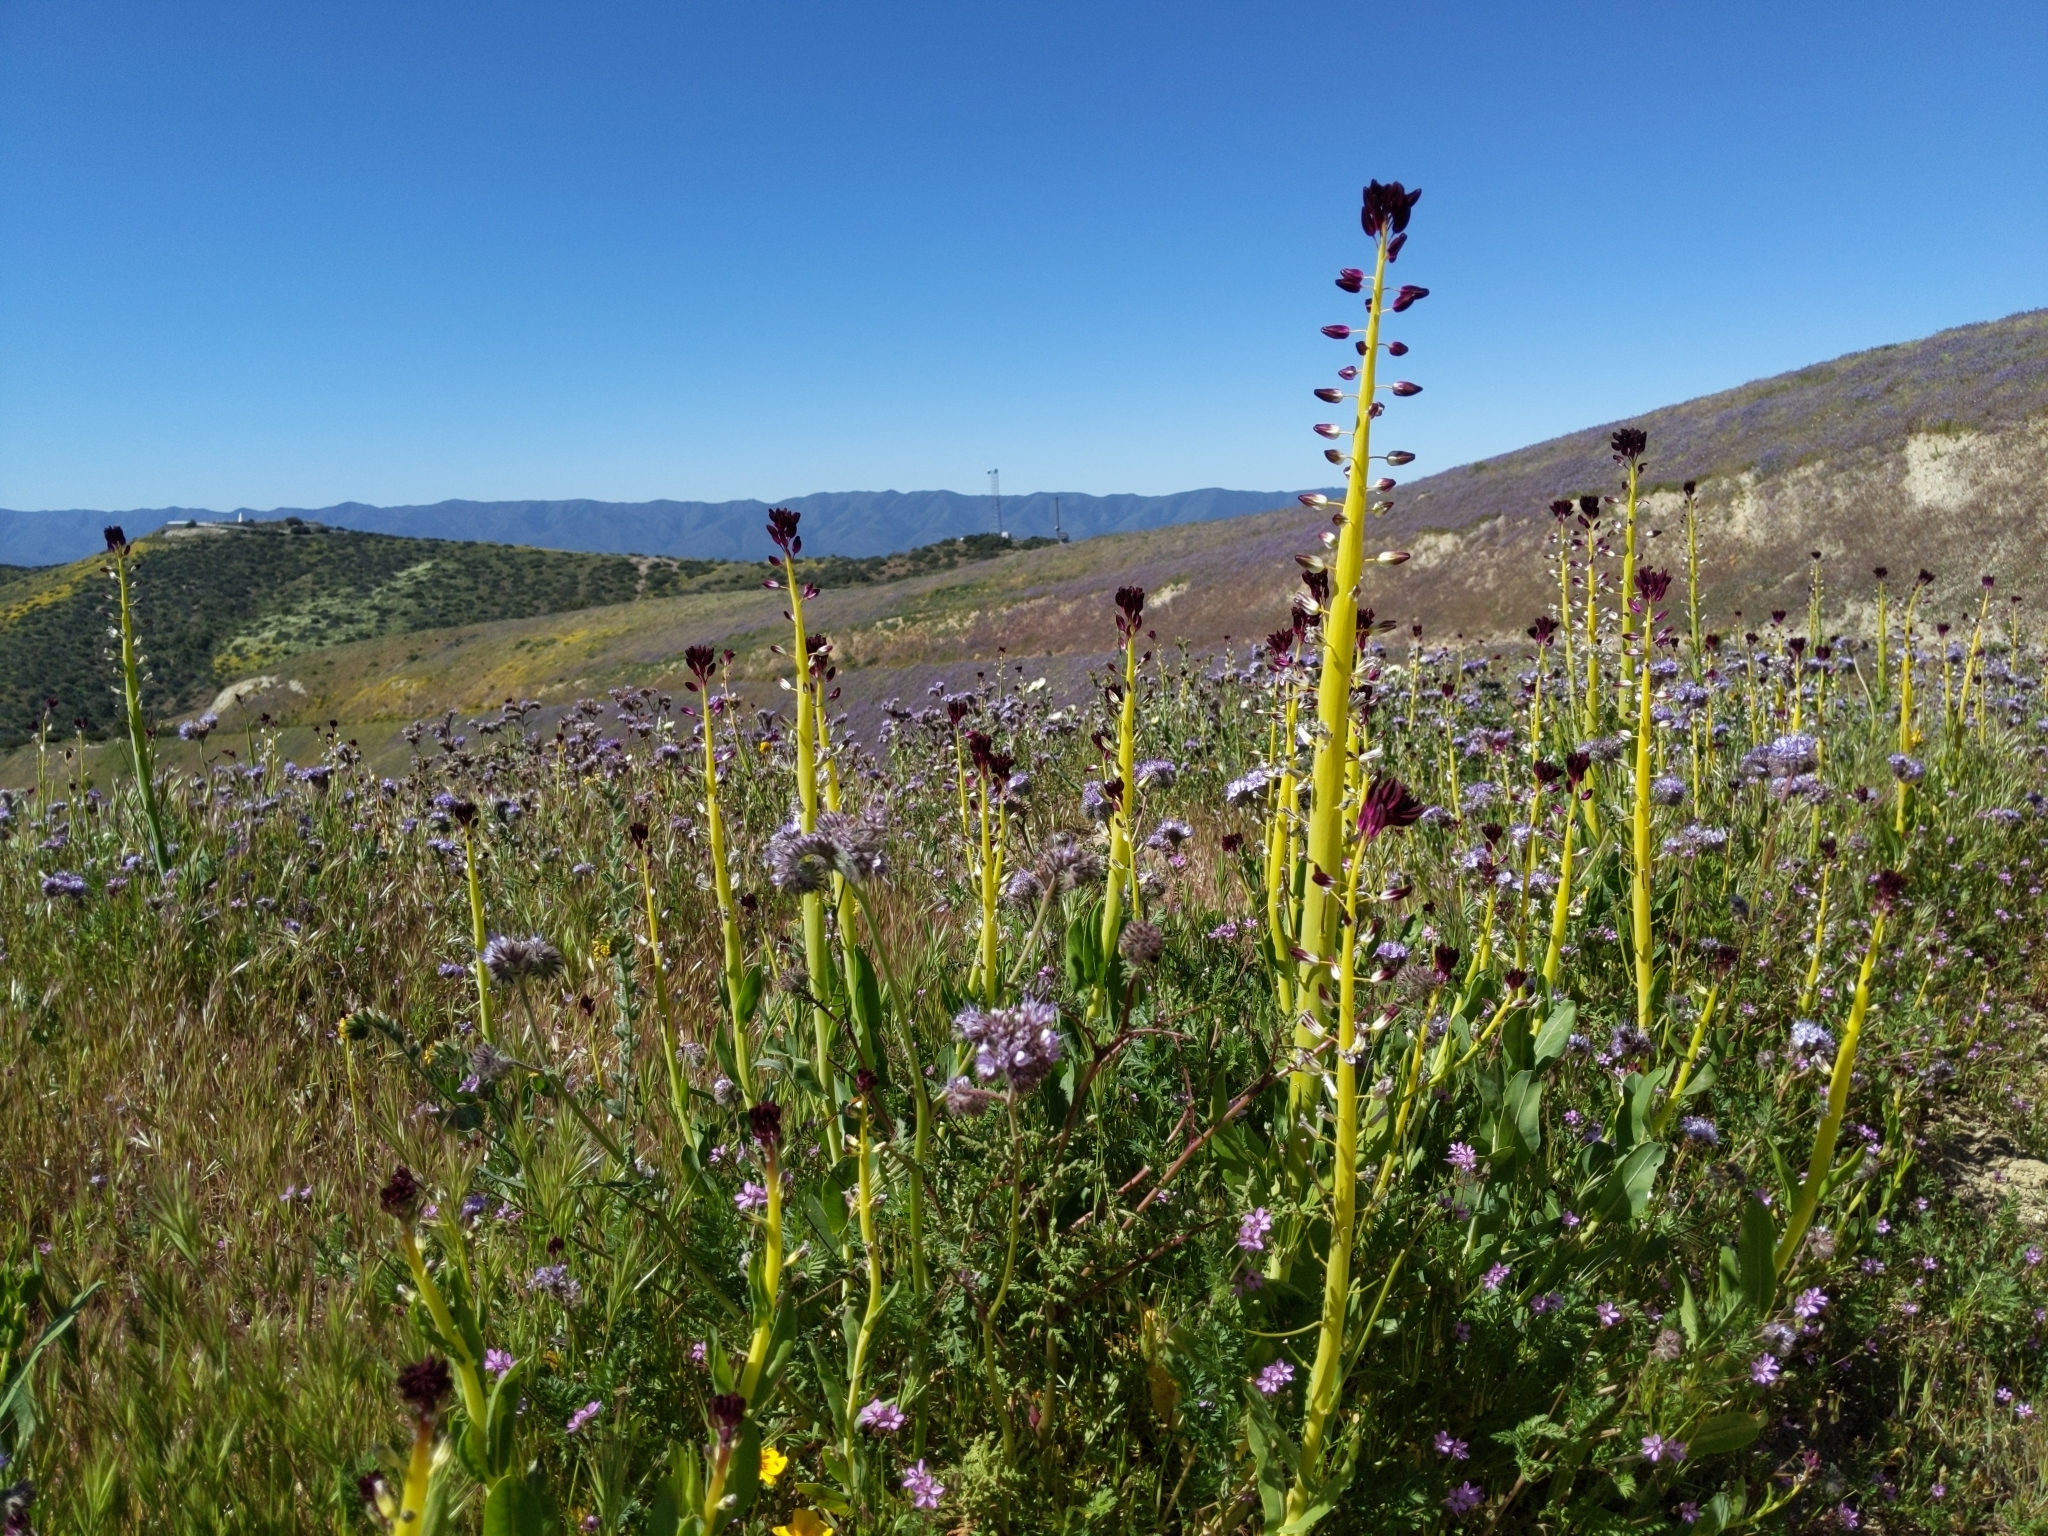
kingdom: Plantae
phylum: Tracheophyta
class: Magnoliopsida
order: Brassicales
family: Brassicaceae
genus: Streptanthus
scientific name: Streptanthus inflatus
